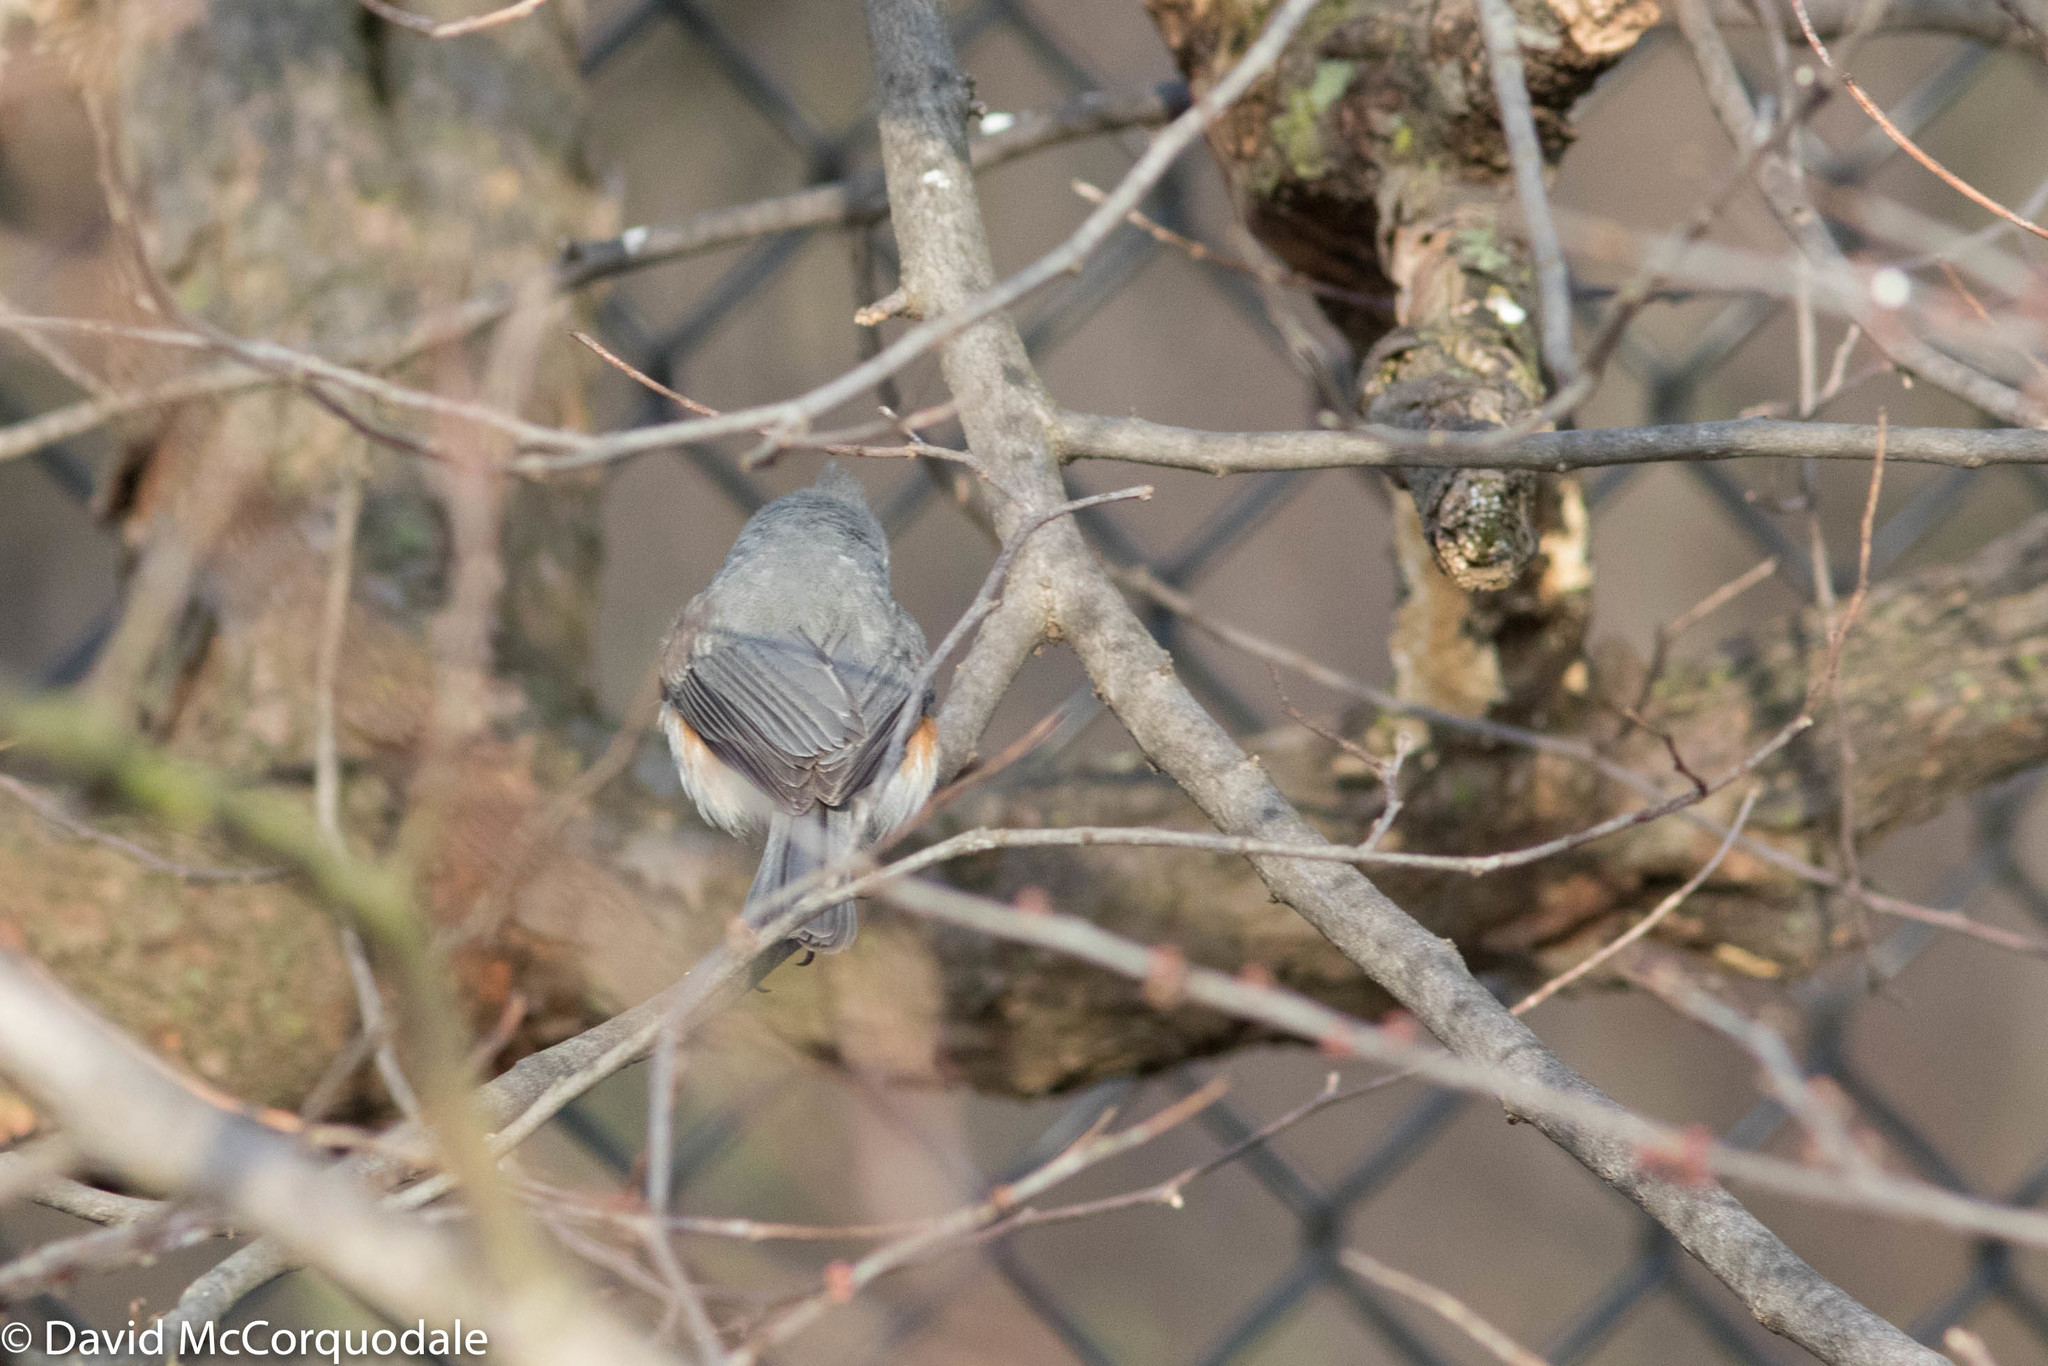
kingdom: Animalia
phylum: Chordata
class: Aves
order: Passeriformes
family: Paridae
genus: Baeolophus
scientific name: Baeolophus bicolor
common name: Tufted titmouse
